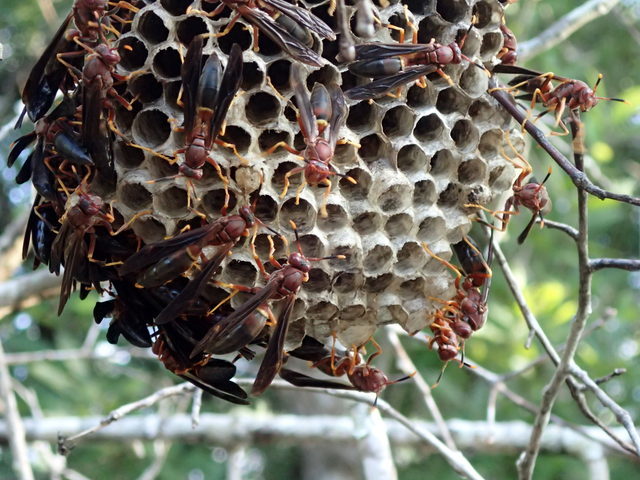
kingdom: Animalia
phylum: Arthropoda
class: Insecta
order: Hymenoptera
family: Eumenidae
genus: Polistes
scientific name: Polistes annularis
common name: Ringed paper wasp
